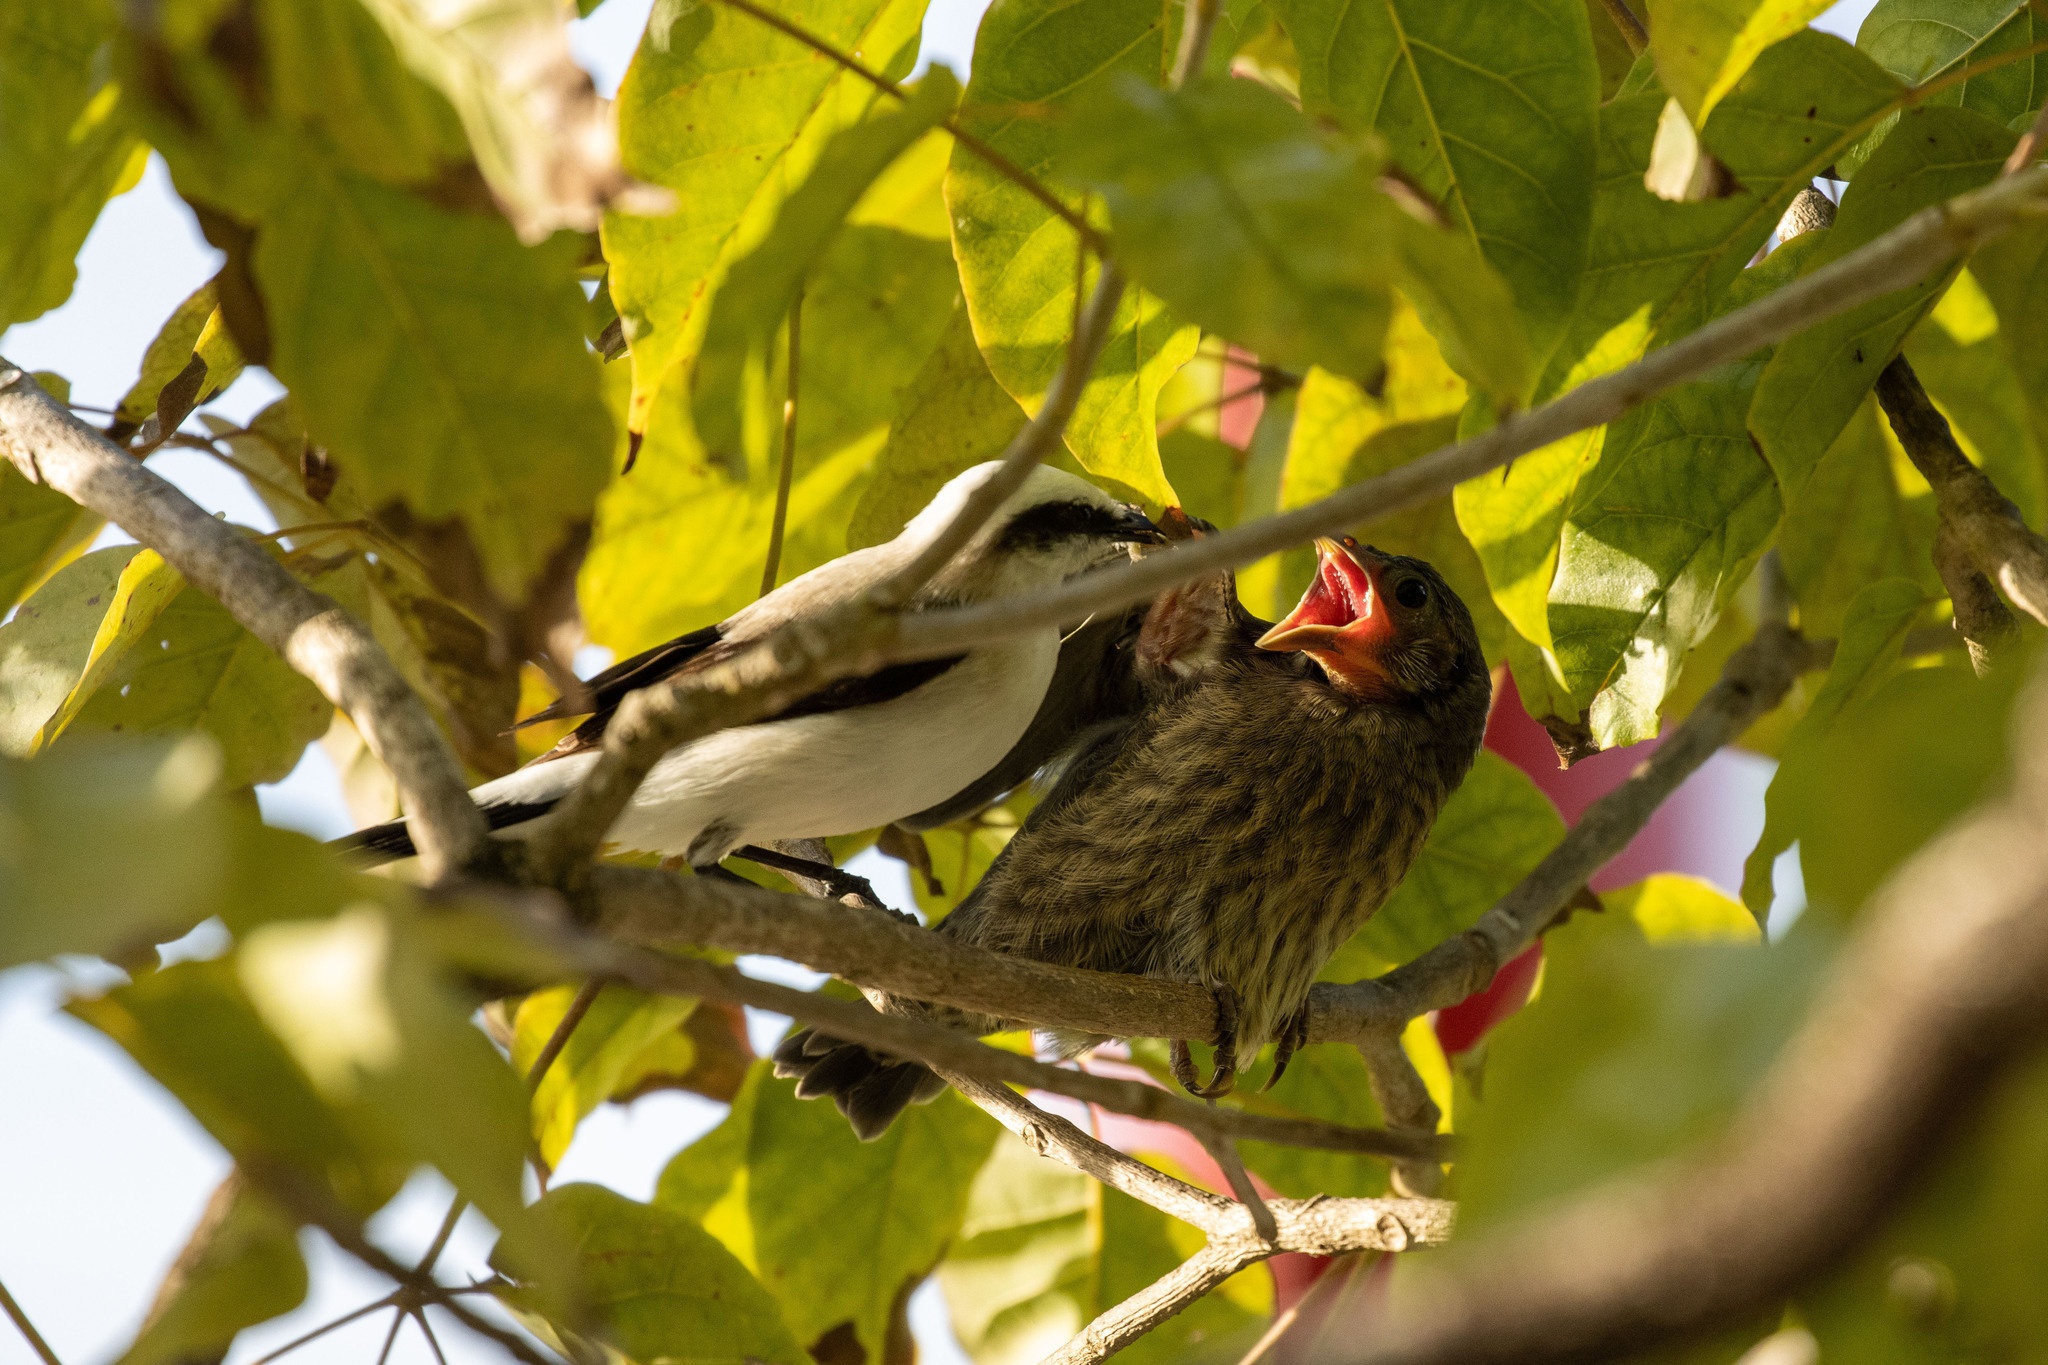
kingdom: Animalia
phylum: Chordata
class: Aves
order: Passeriformes
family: Icteridae
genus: Molothrus
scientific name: Molothrus bonariensis
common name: Shiny cowbird
